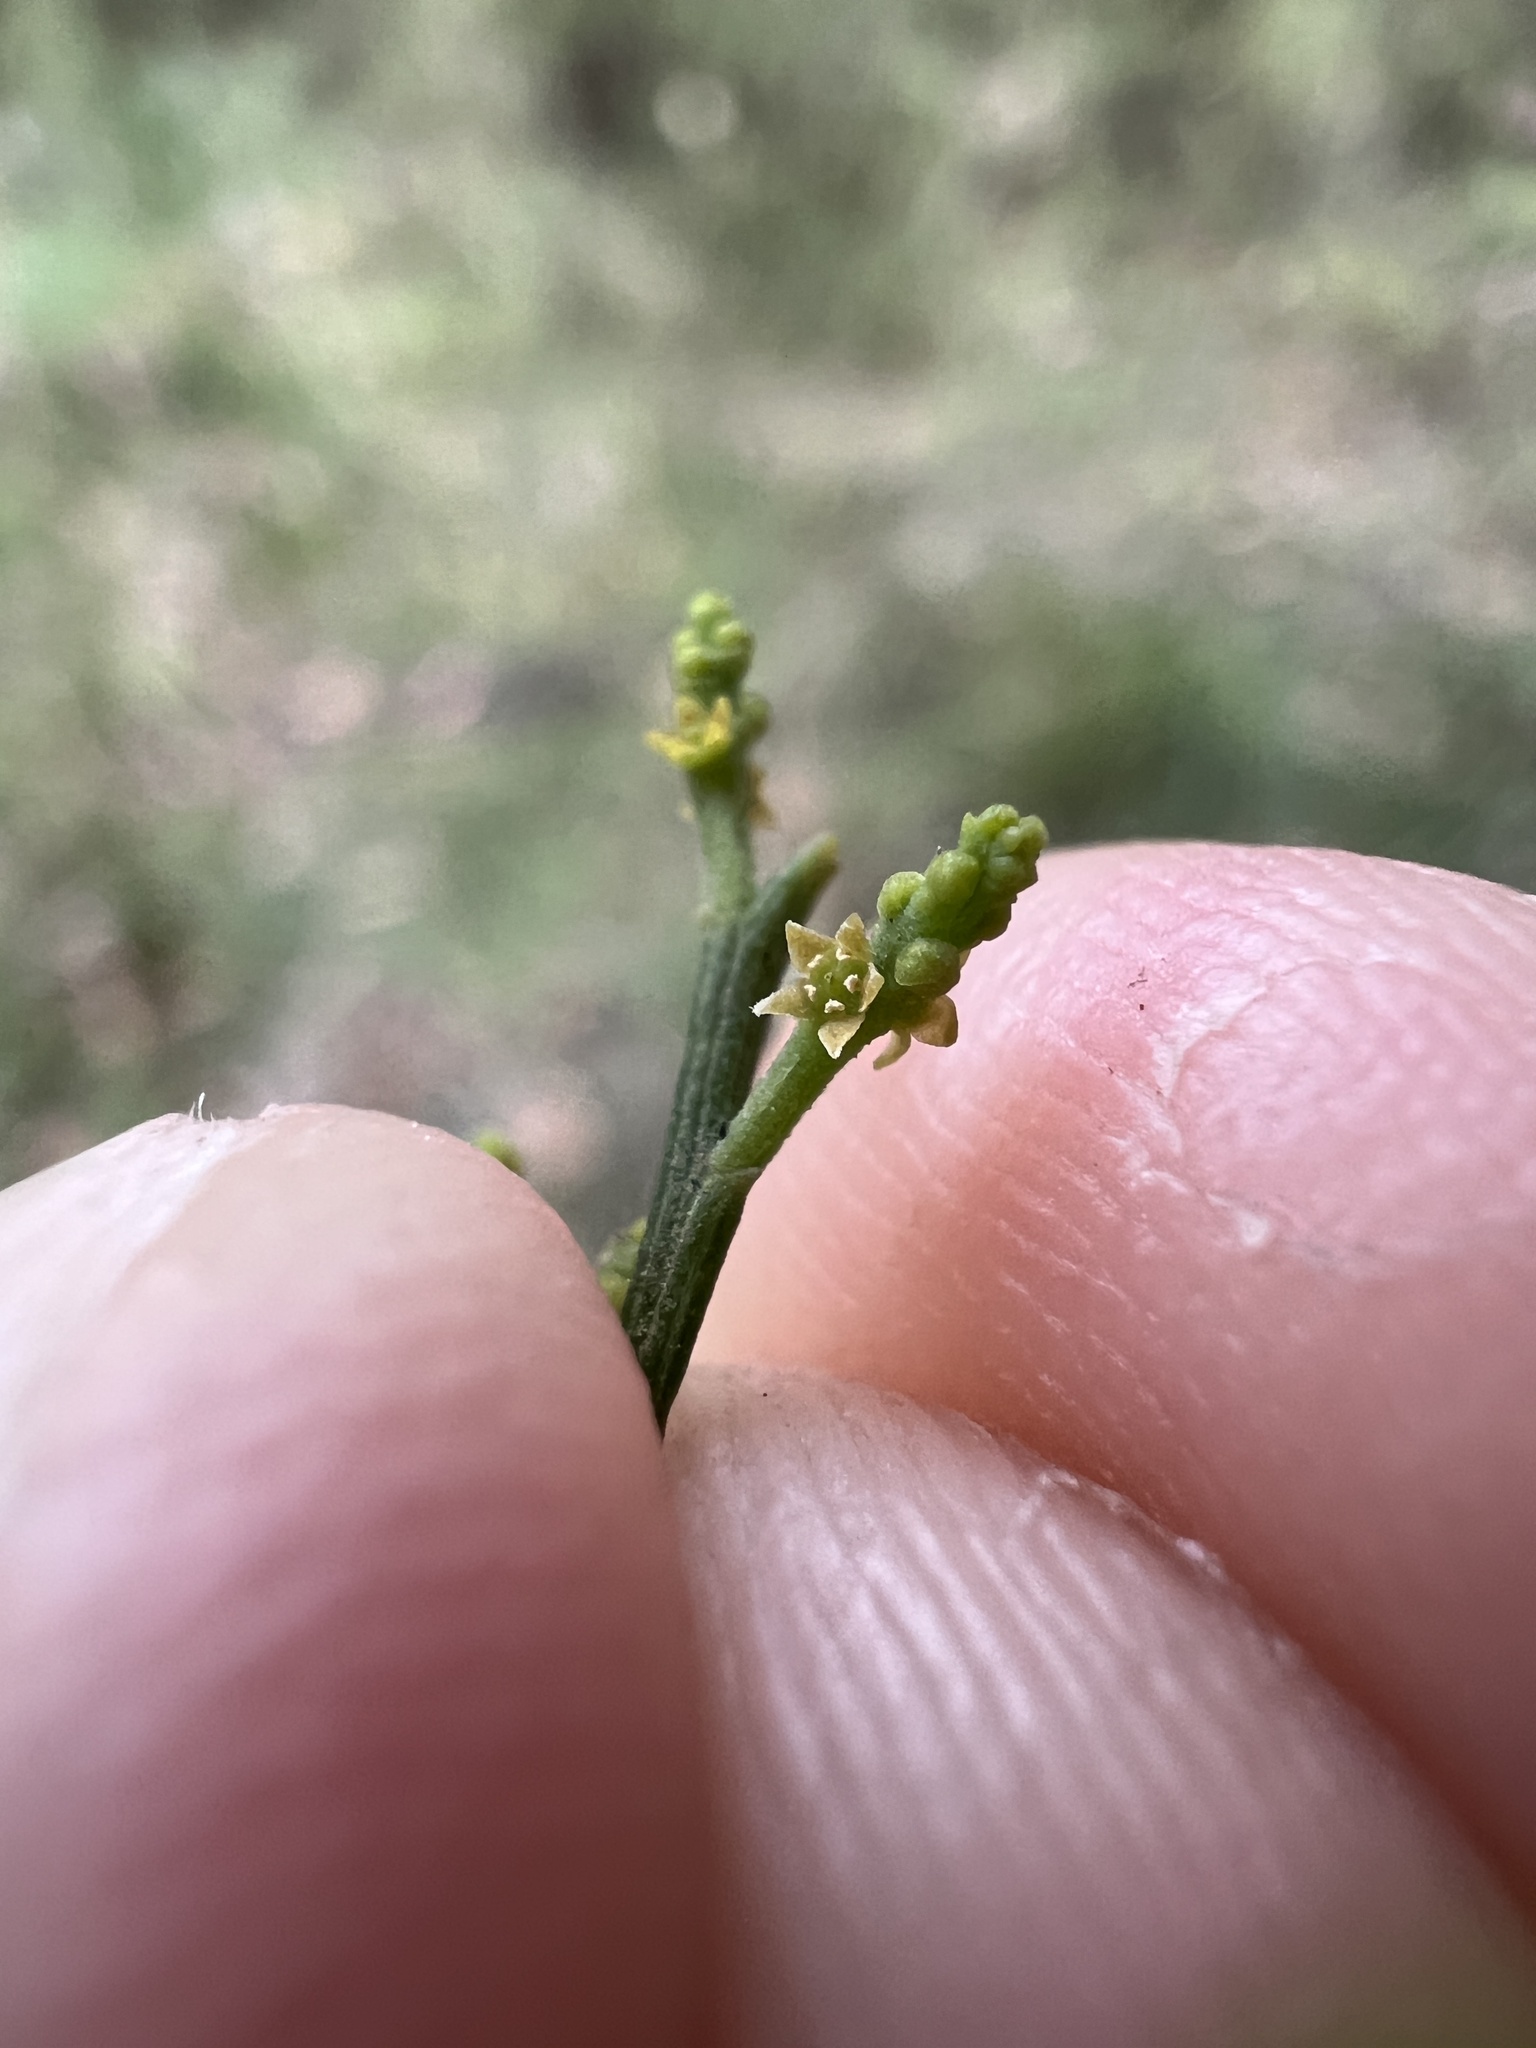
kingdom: Plantae
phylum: Tracheophyta
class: Magnoliopsida
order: Santalales
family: Santalaceae
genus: Exocarpos
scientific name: Exocarpos cupressiformis
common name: Cherry ballart
